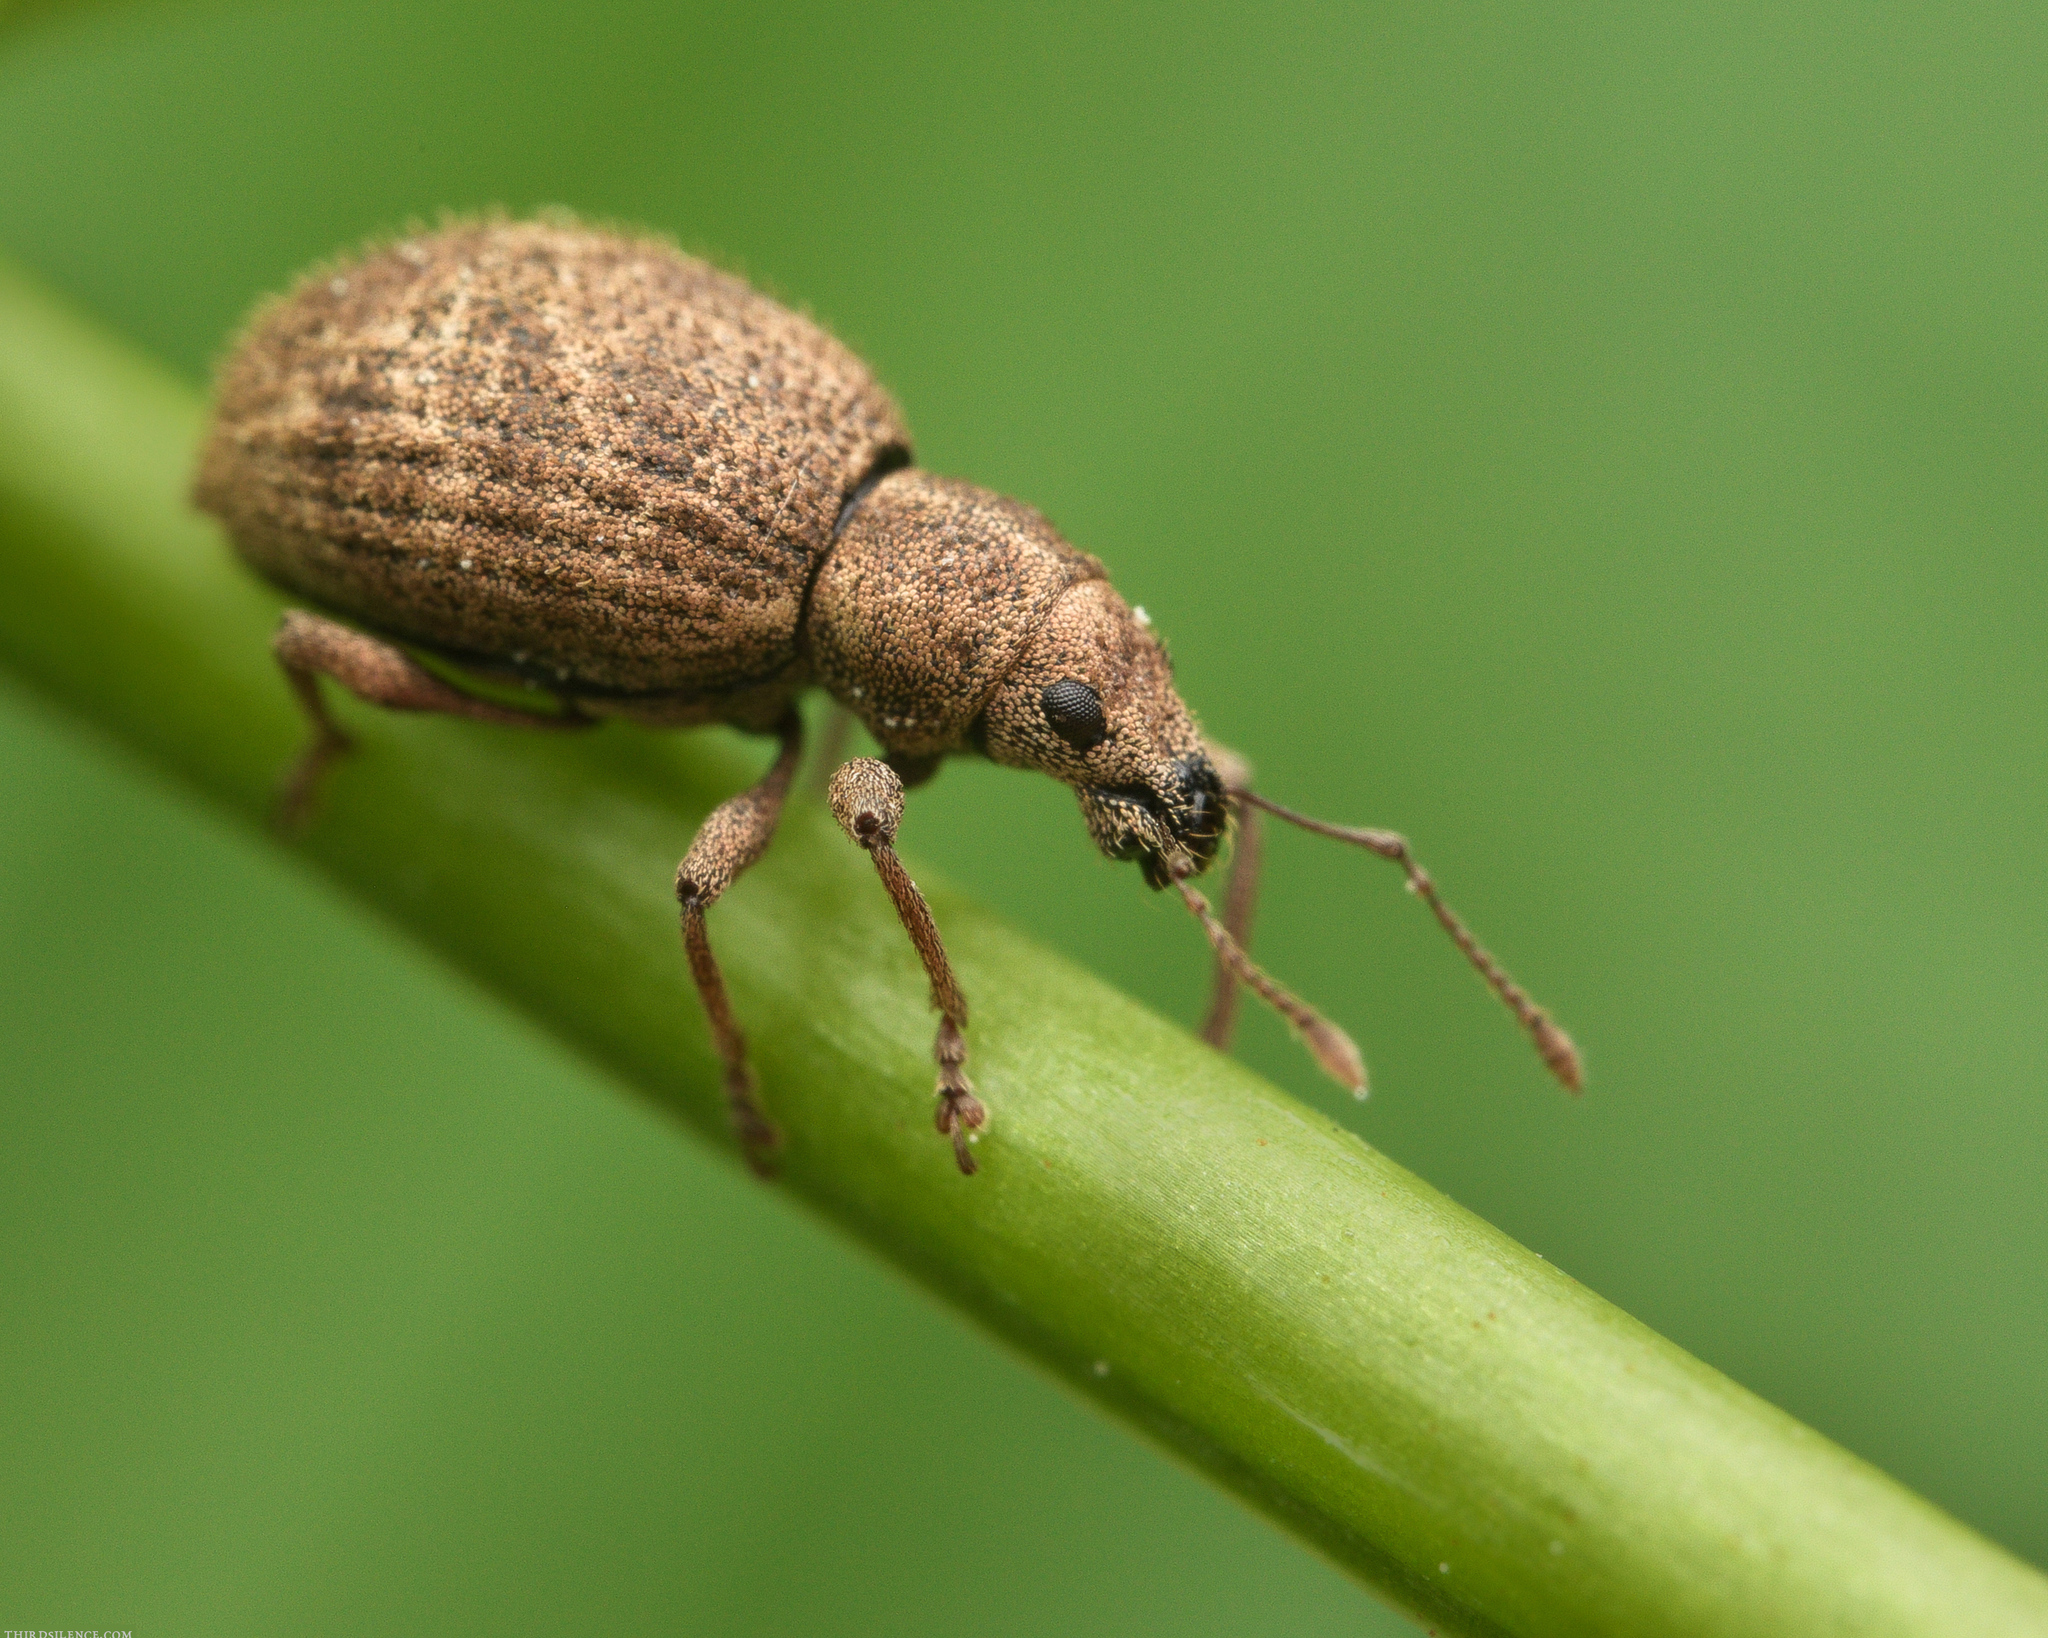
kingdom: Animalia
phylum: Arthropoda
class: Insecta
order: Coleoptera
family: Curculionidae
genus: Sciaphilus
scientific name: Sciaphilus asperatus
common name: Weevil
